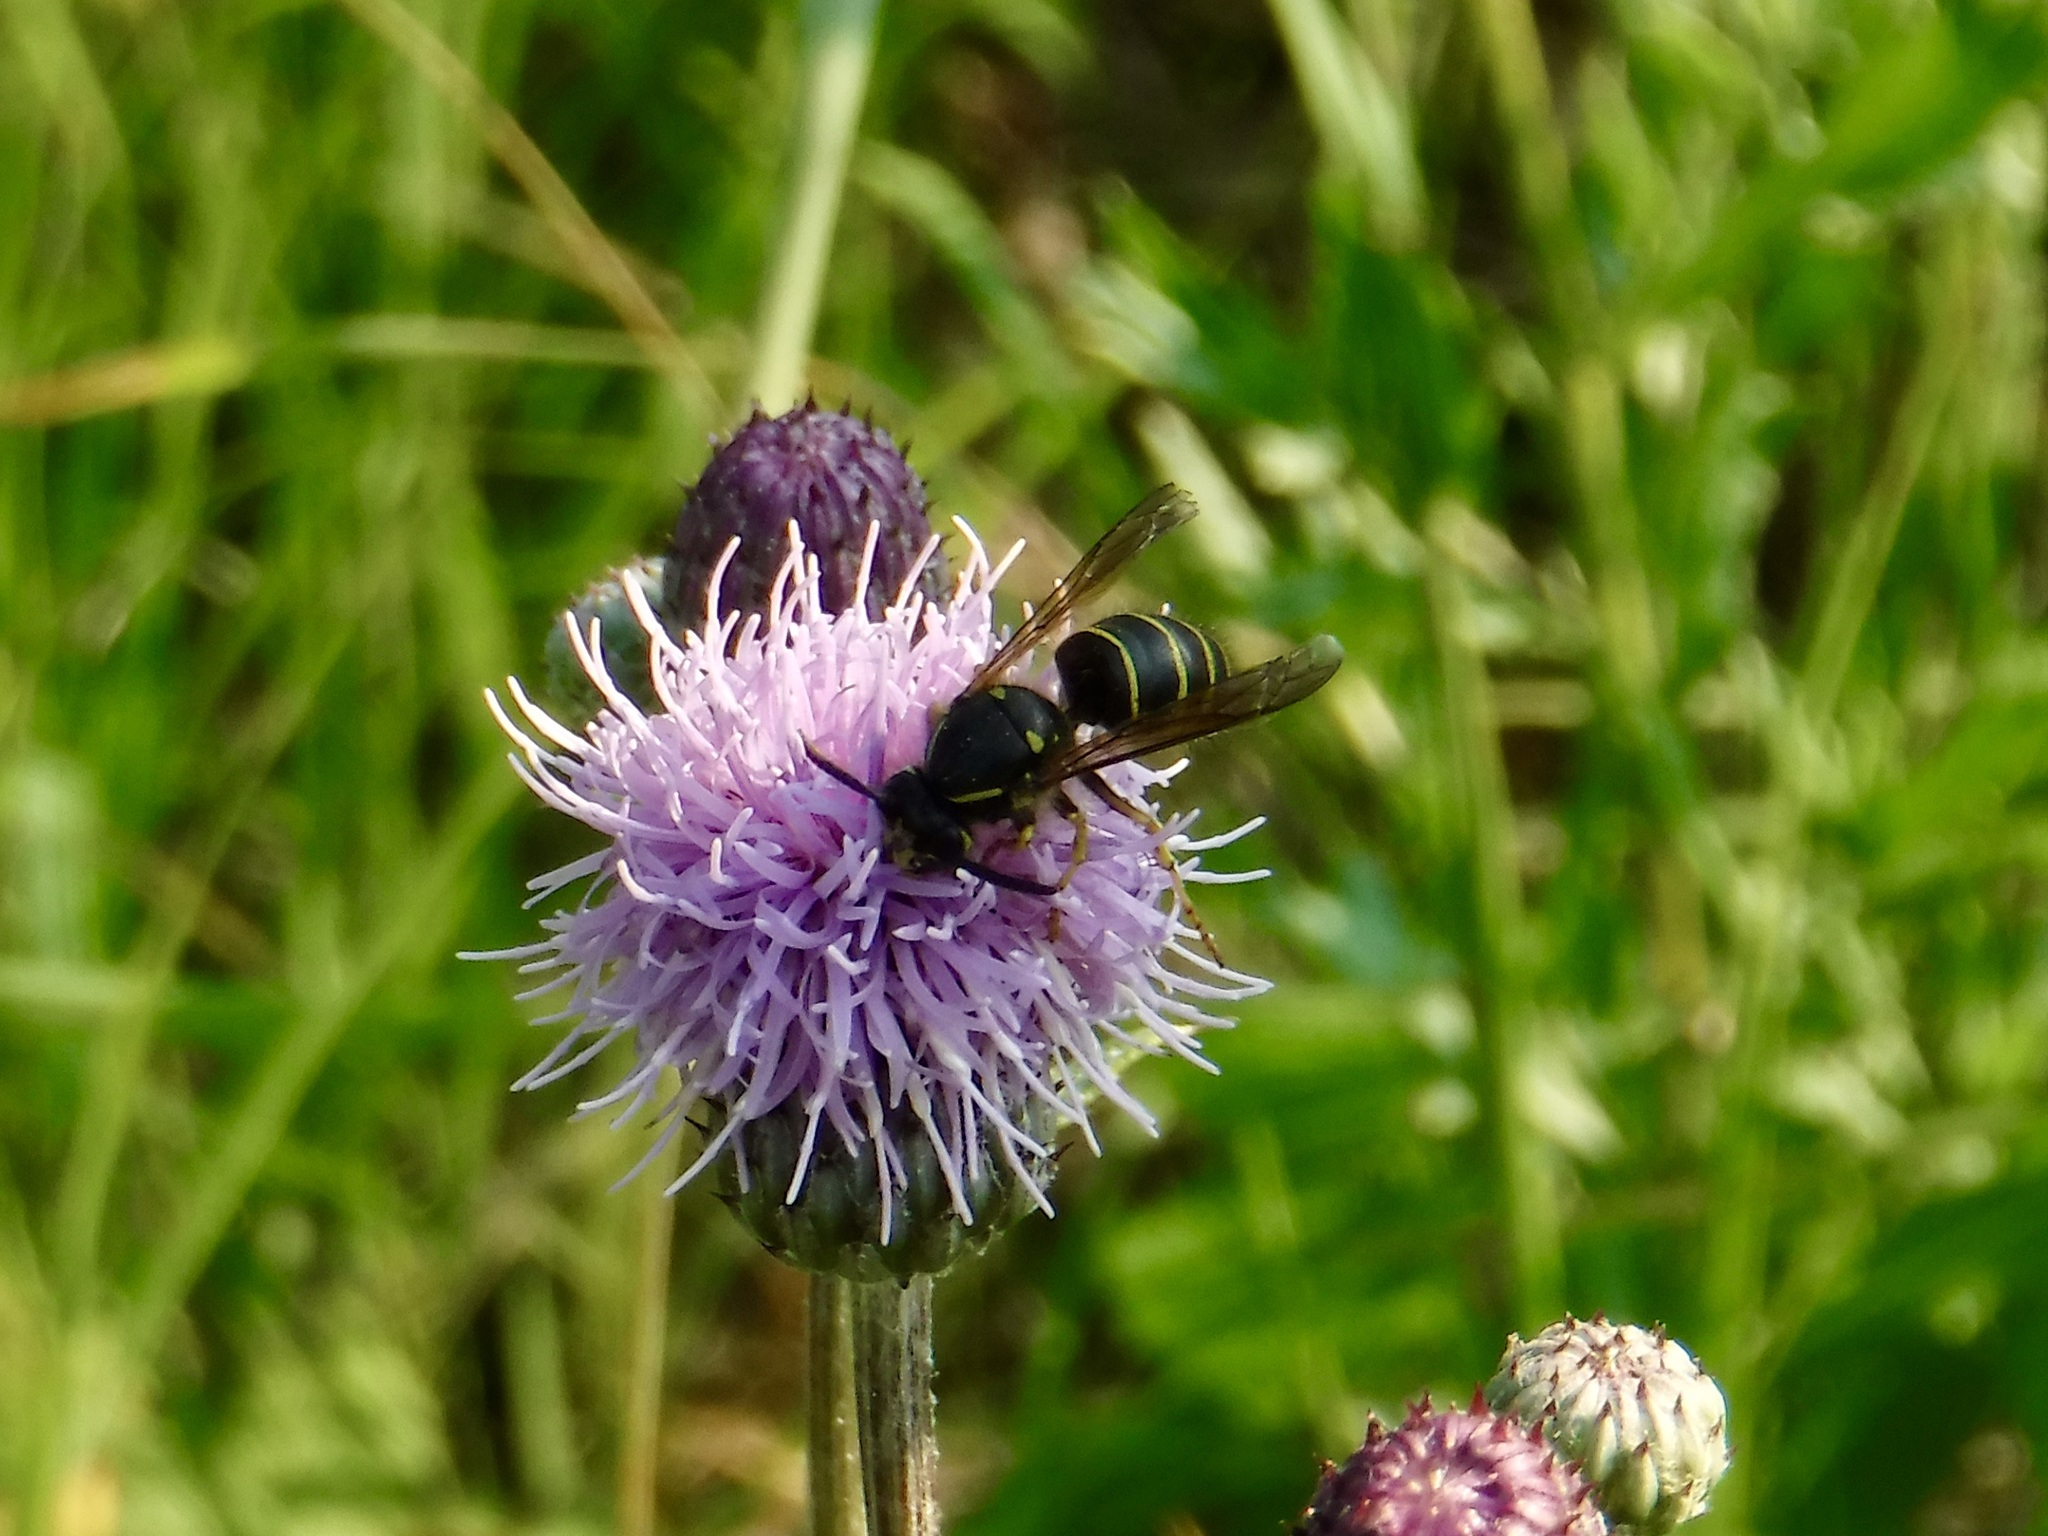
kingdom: Animalia
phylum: Arthropoda
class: Insecta
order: Hymenoptera
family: Vespidae
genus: Dolichovespula
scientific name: Dolichovespula norvegicoides
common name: Northern aerial yellowjacket
